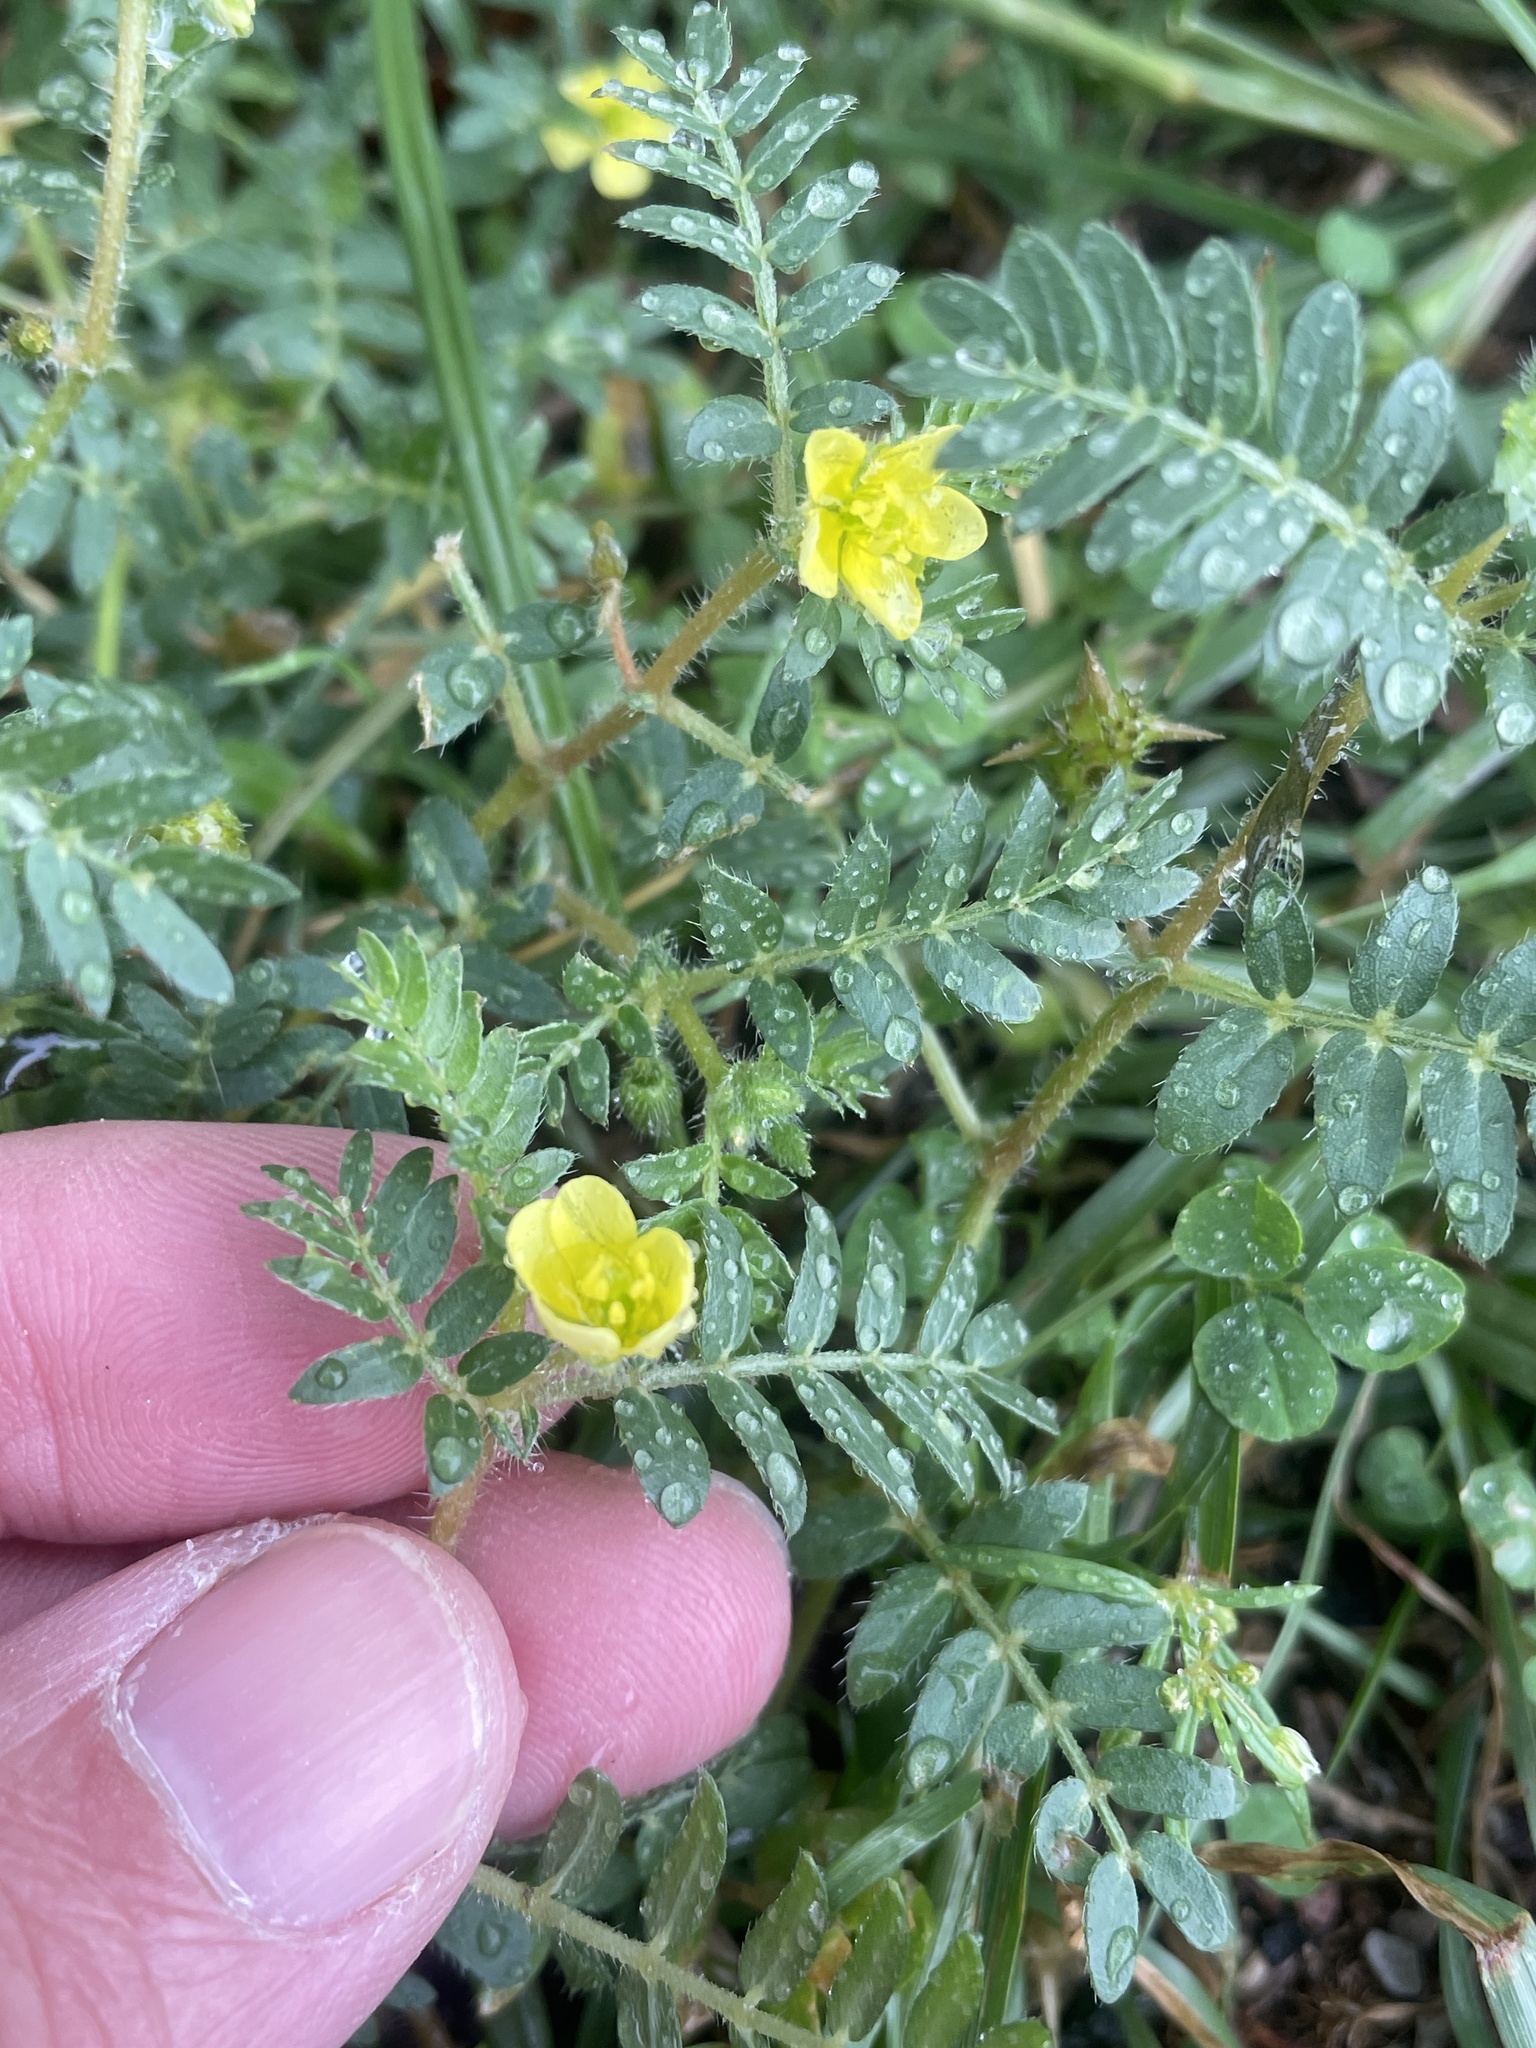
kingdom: Plantae
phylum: Tracheophyta
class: Magnoliopsida
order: Zygophyllales
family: Zygophyllaceae
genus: Tribulus
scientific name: Tribulus terrestris
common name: Puncturevine
